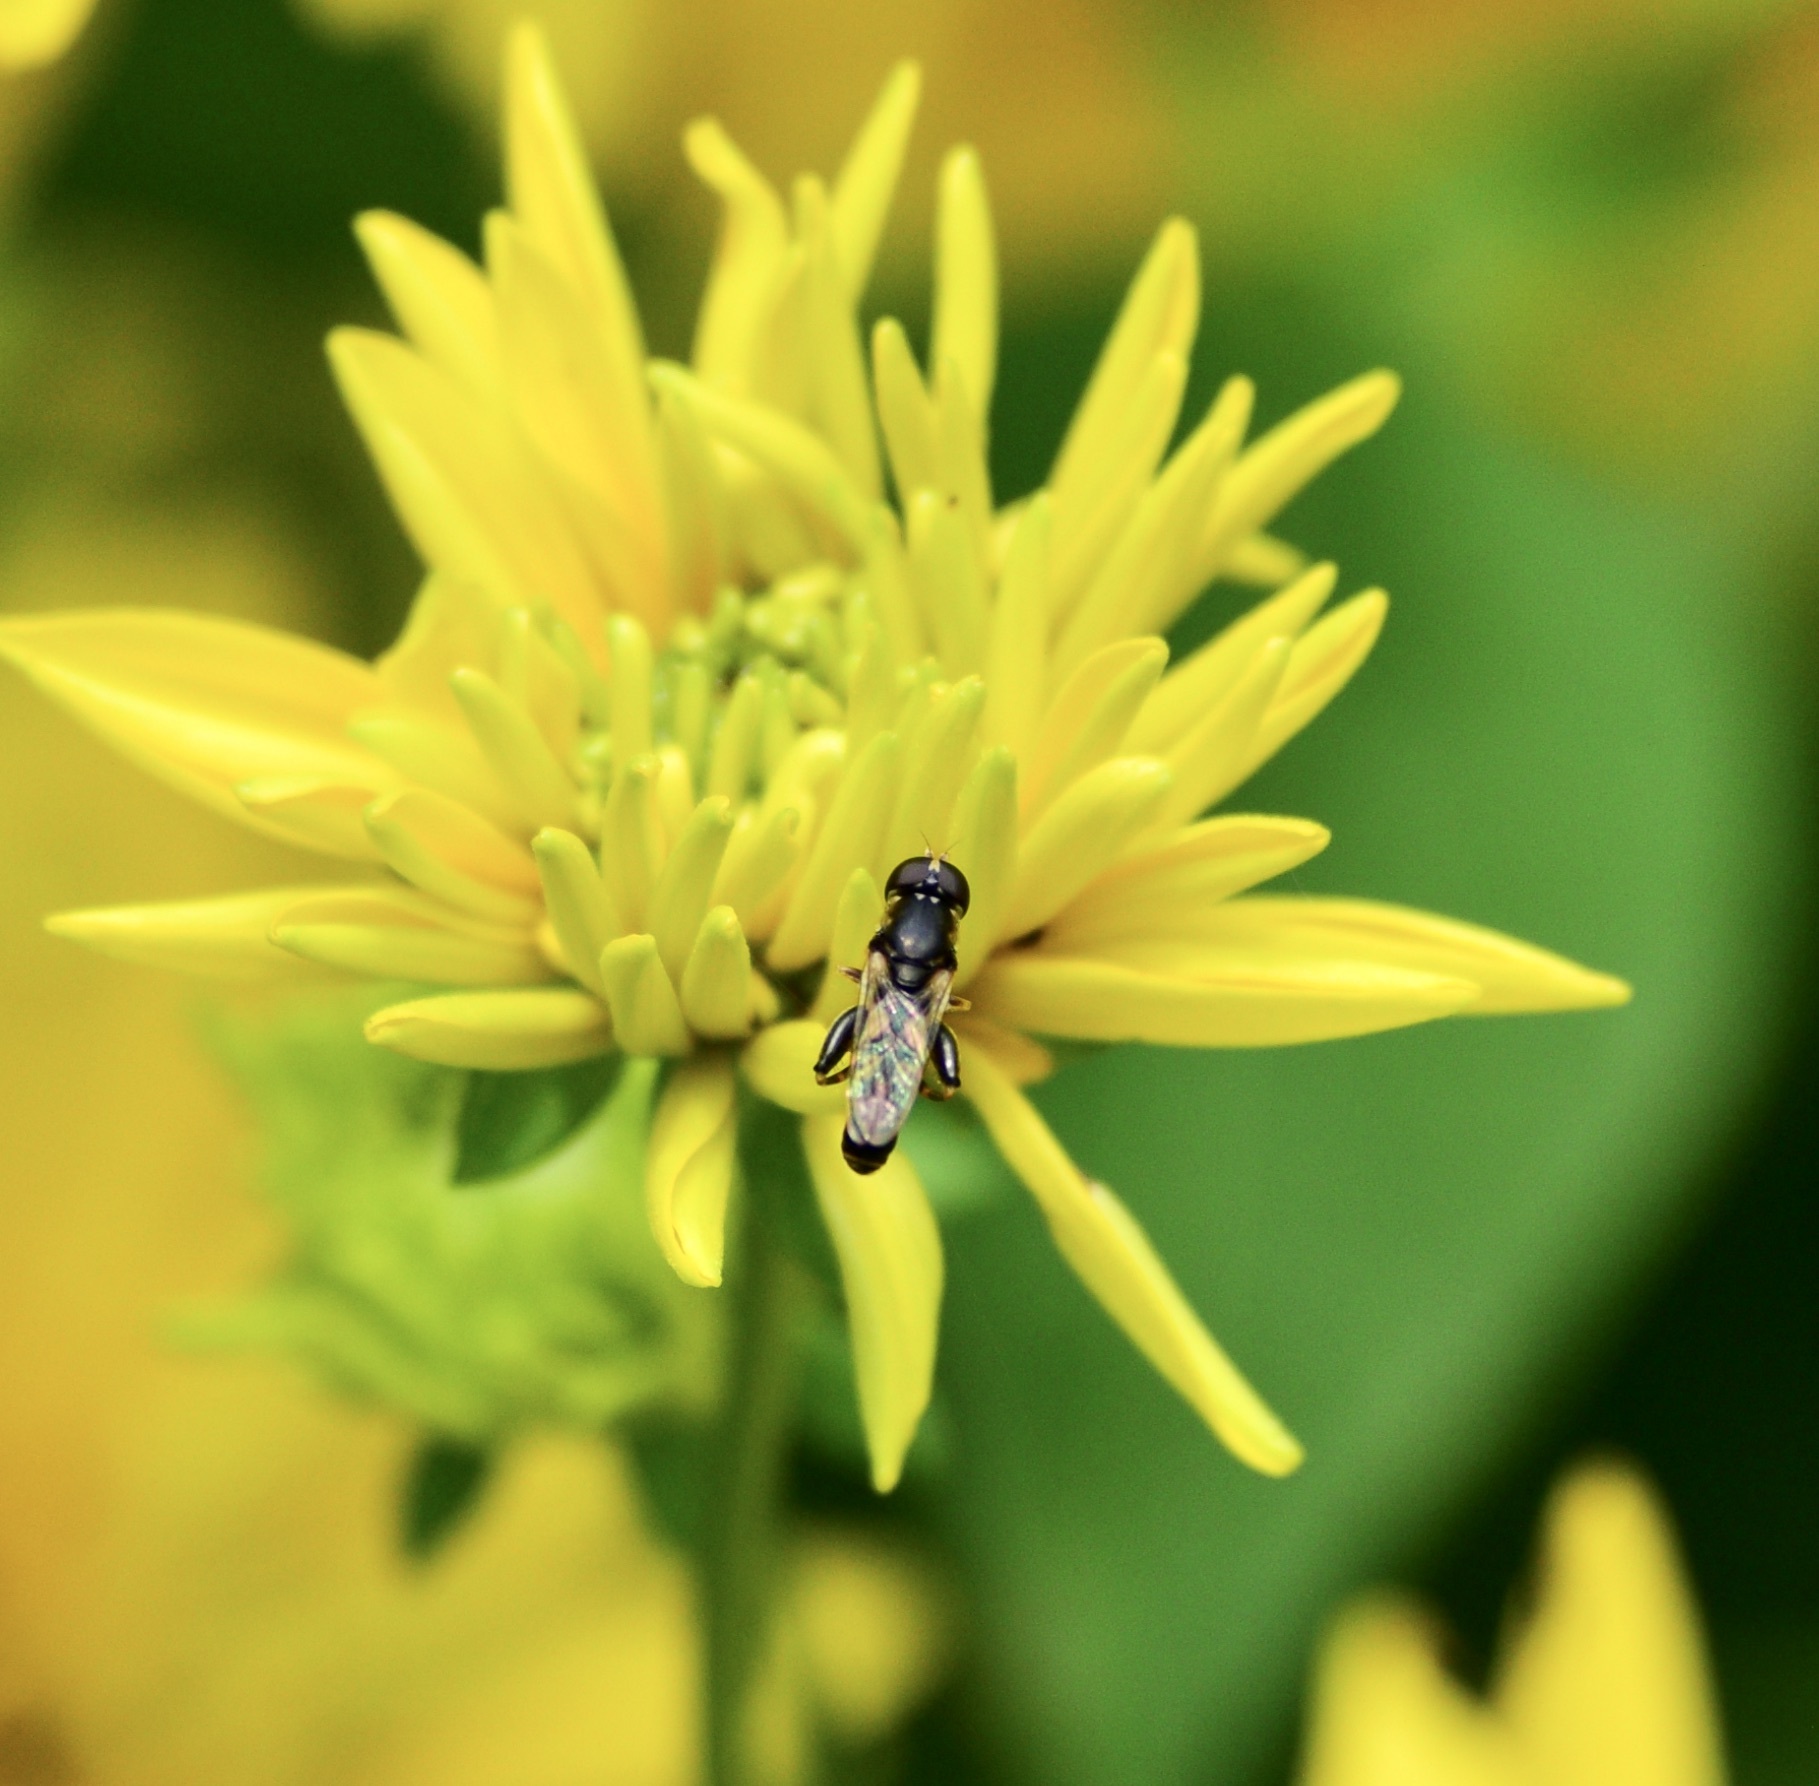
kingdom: Animalia
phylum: Arthropoda
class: Insecta
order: Diptera
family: Syrphidae
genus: Syritta
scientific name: Syritta pipiens
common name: Hover fly
